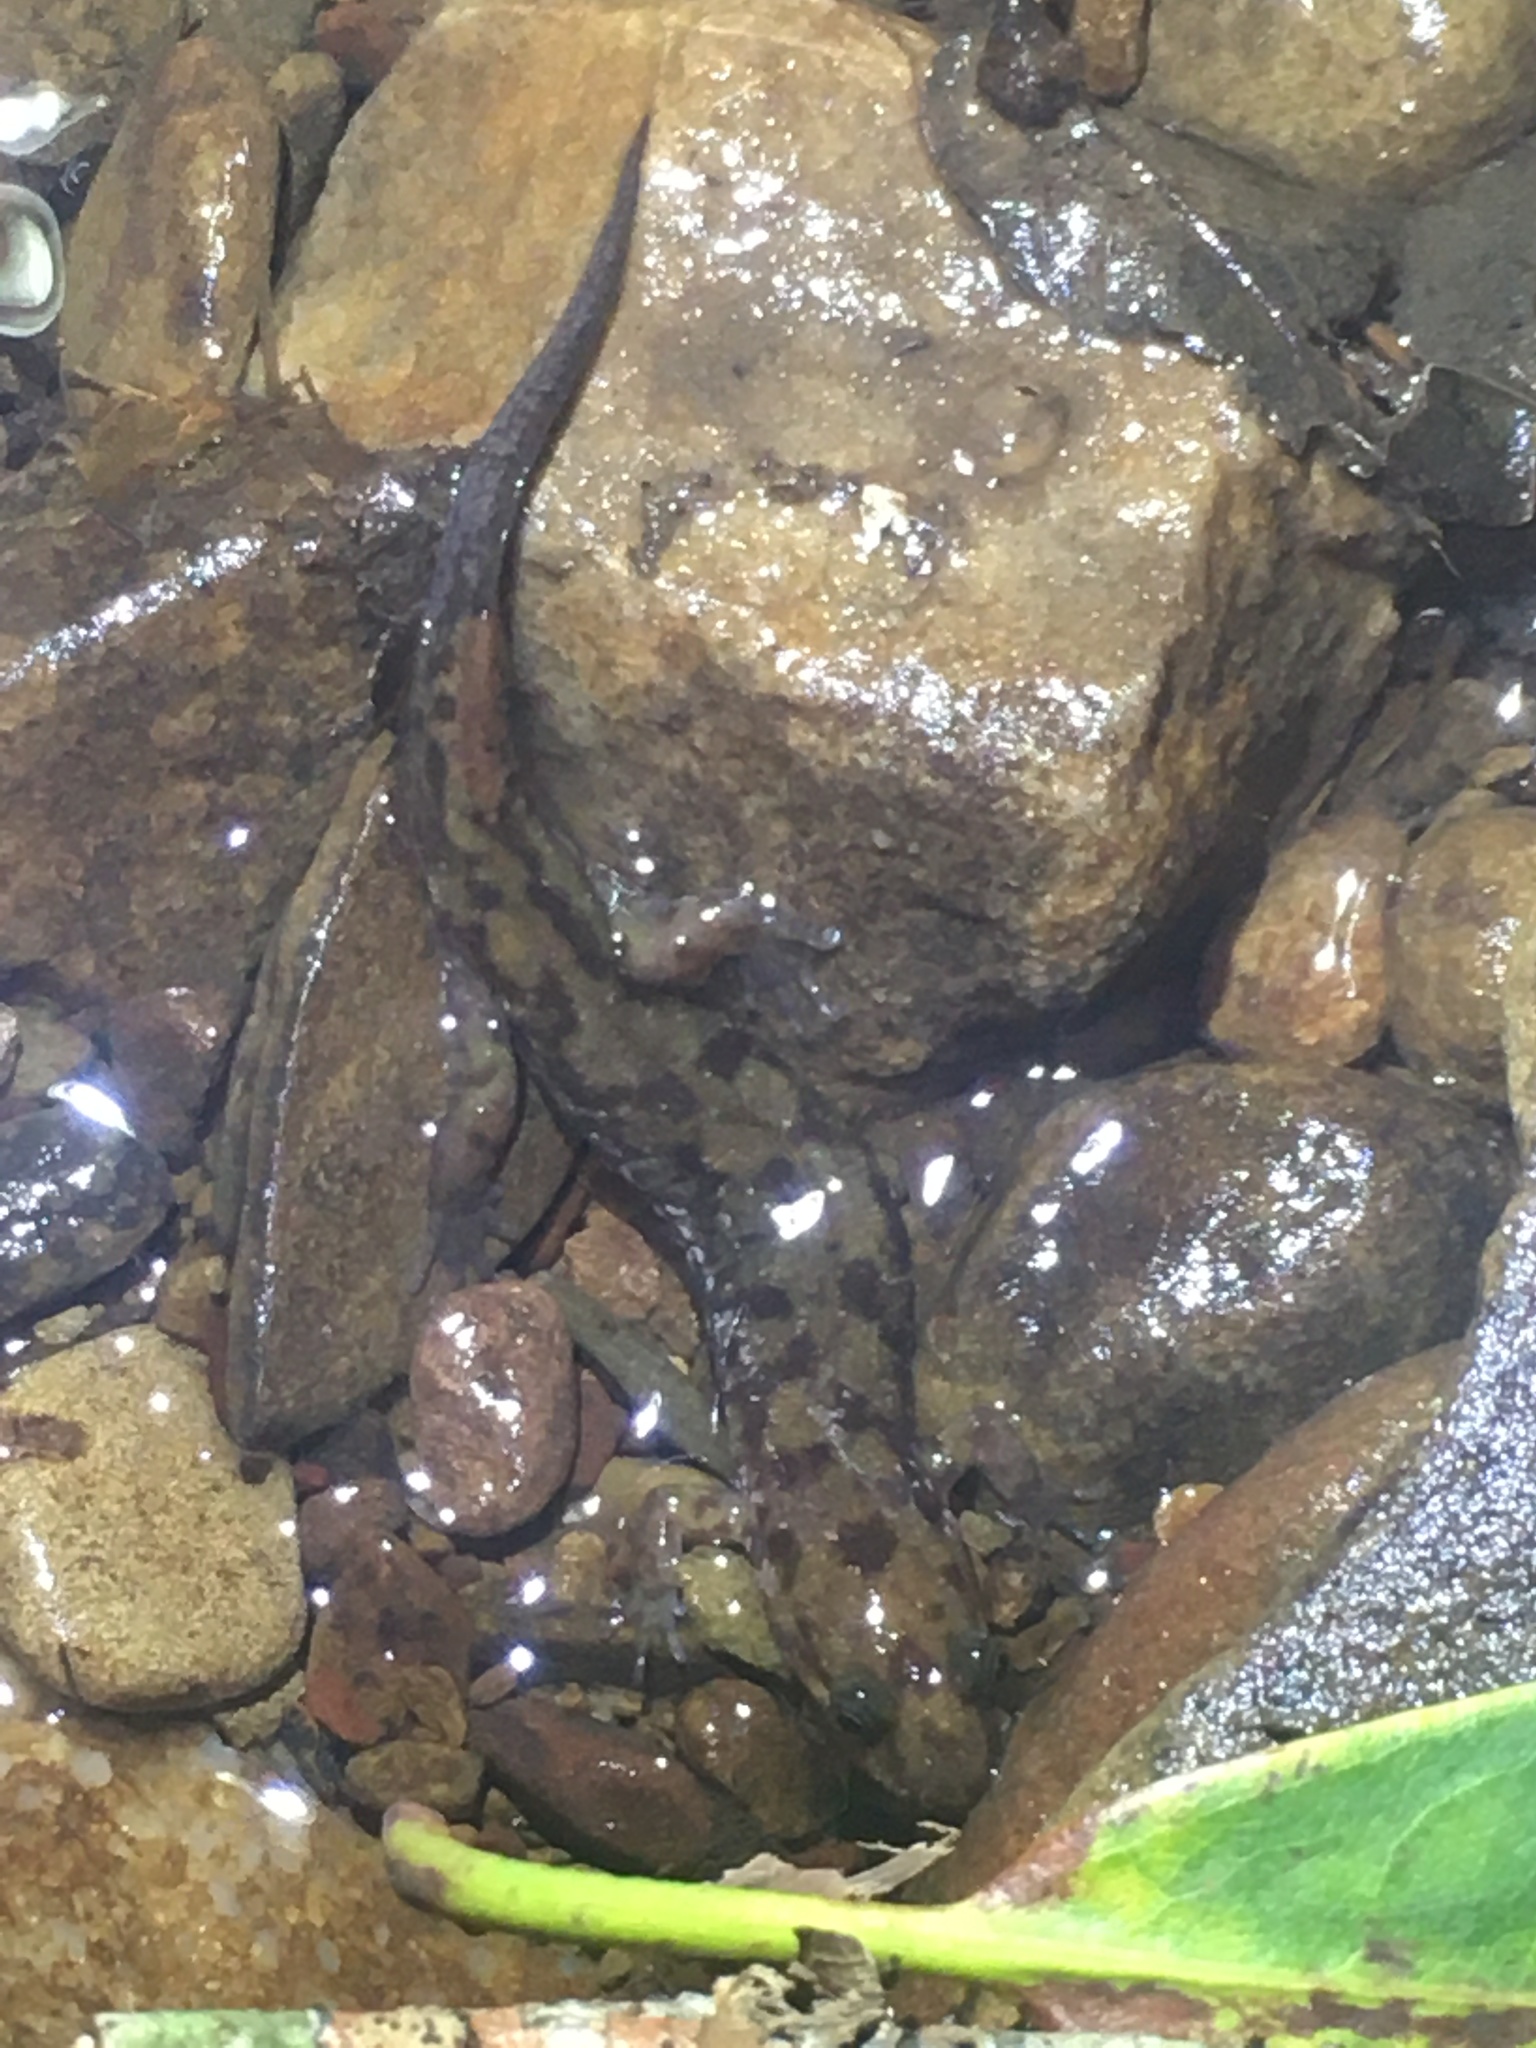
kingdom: Animalia
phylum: Chordata
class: Amphibia
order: Caudata
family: Plethodontidae
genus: Desmognathus
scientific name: Desmognathus monticola
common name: Seal salamander
